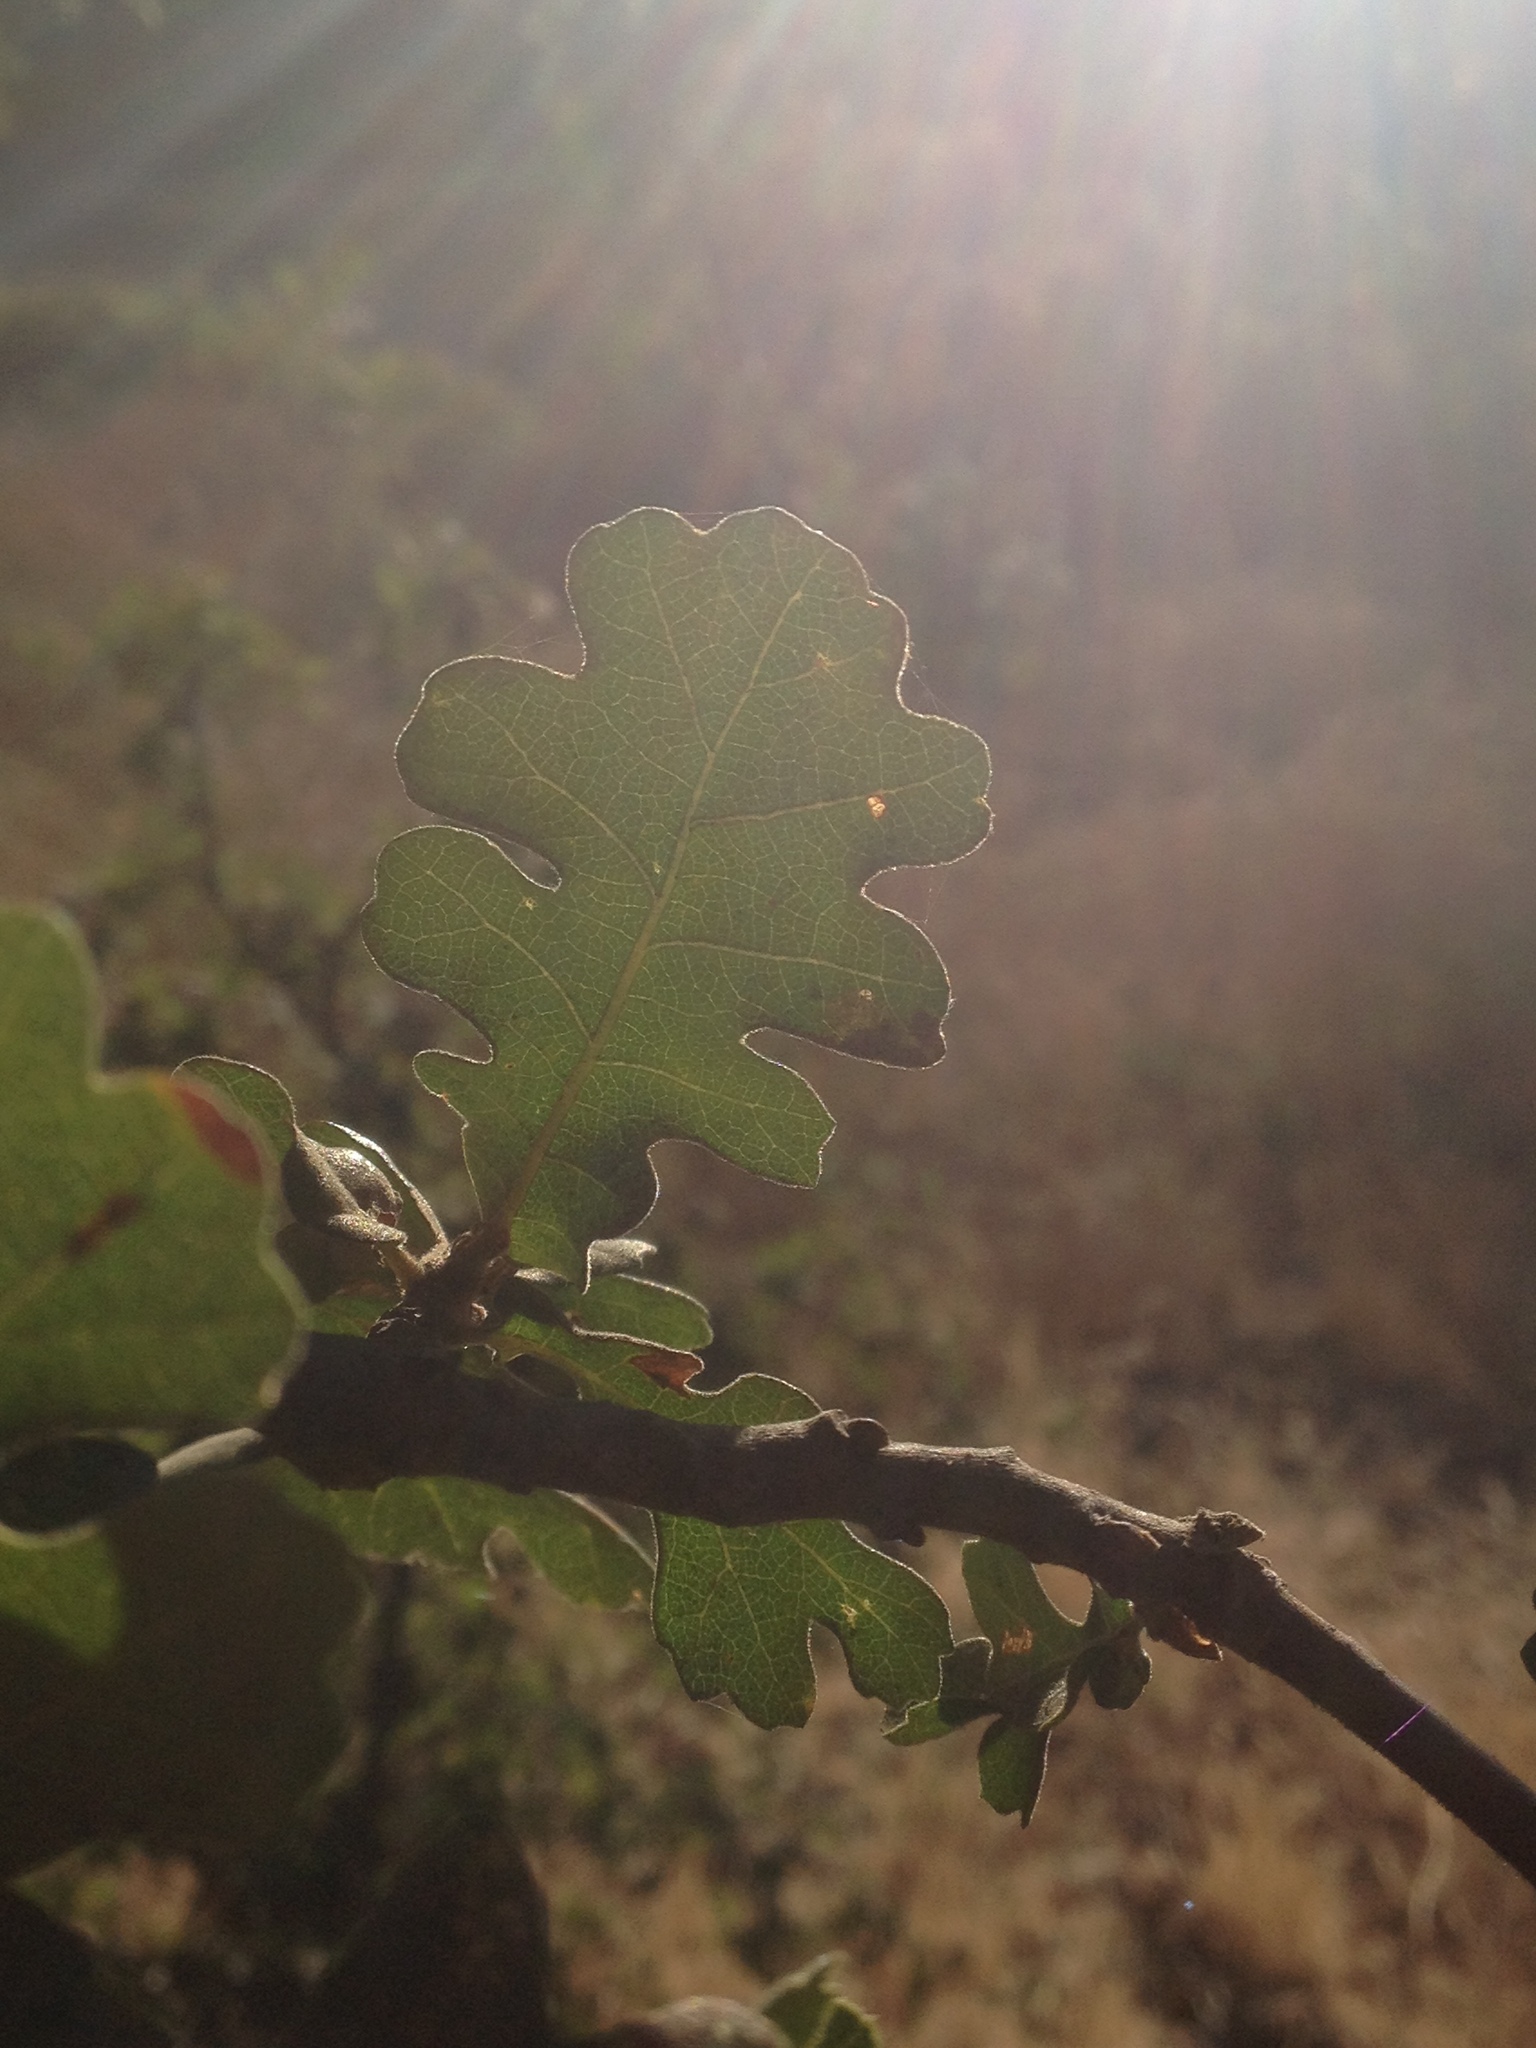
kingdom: Plantae
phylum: Tracheophyta
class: Magnoliopsida
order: Fagales
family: Fagaceae
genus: Quercus
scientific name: Quercus lobata
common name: Valley oak
